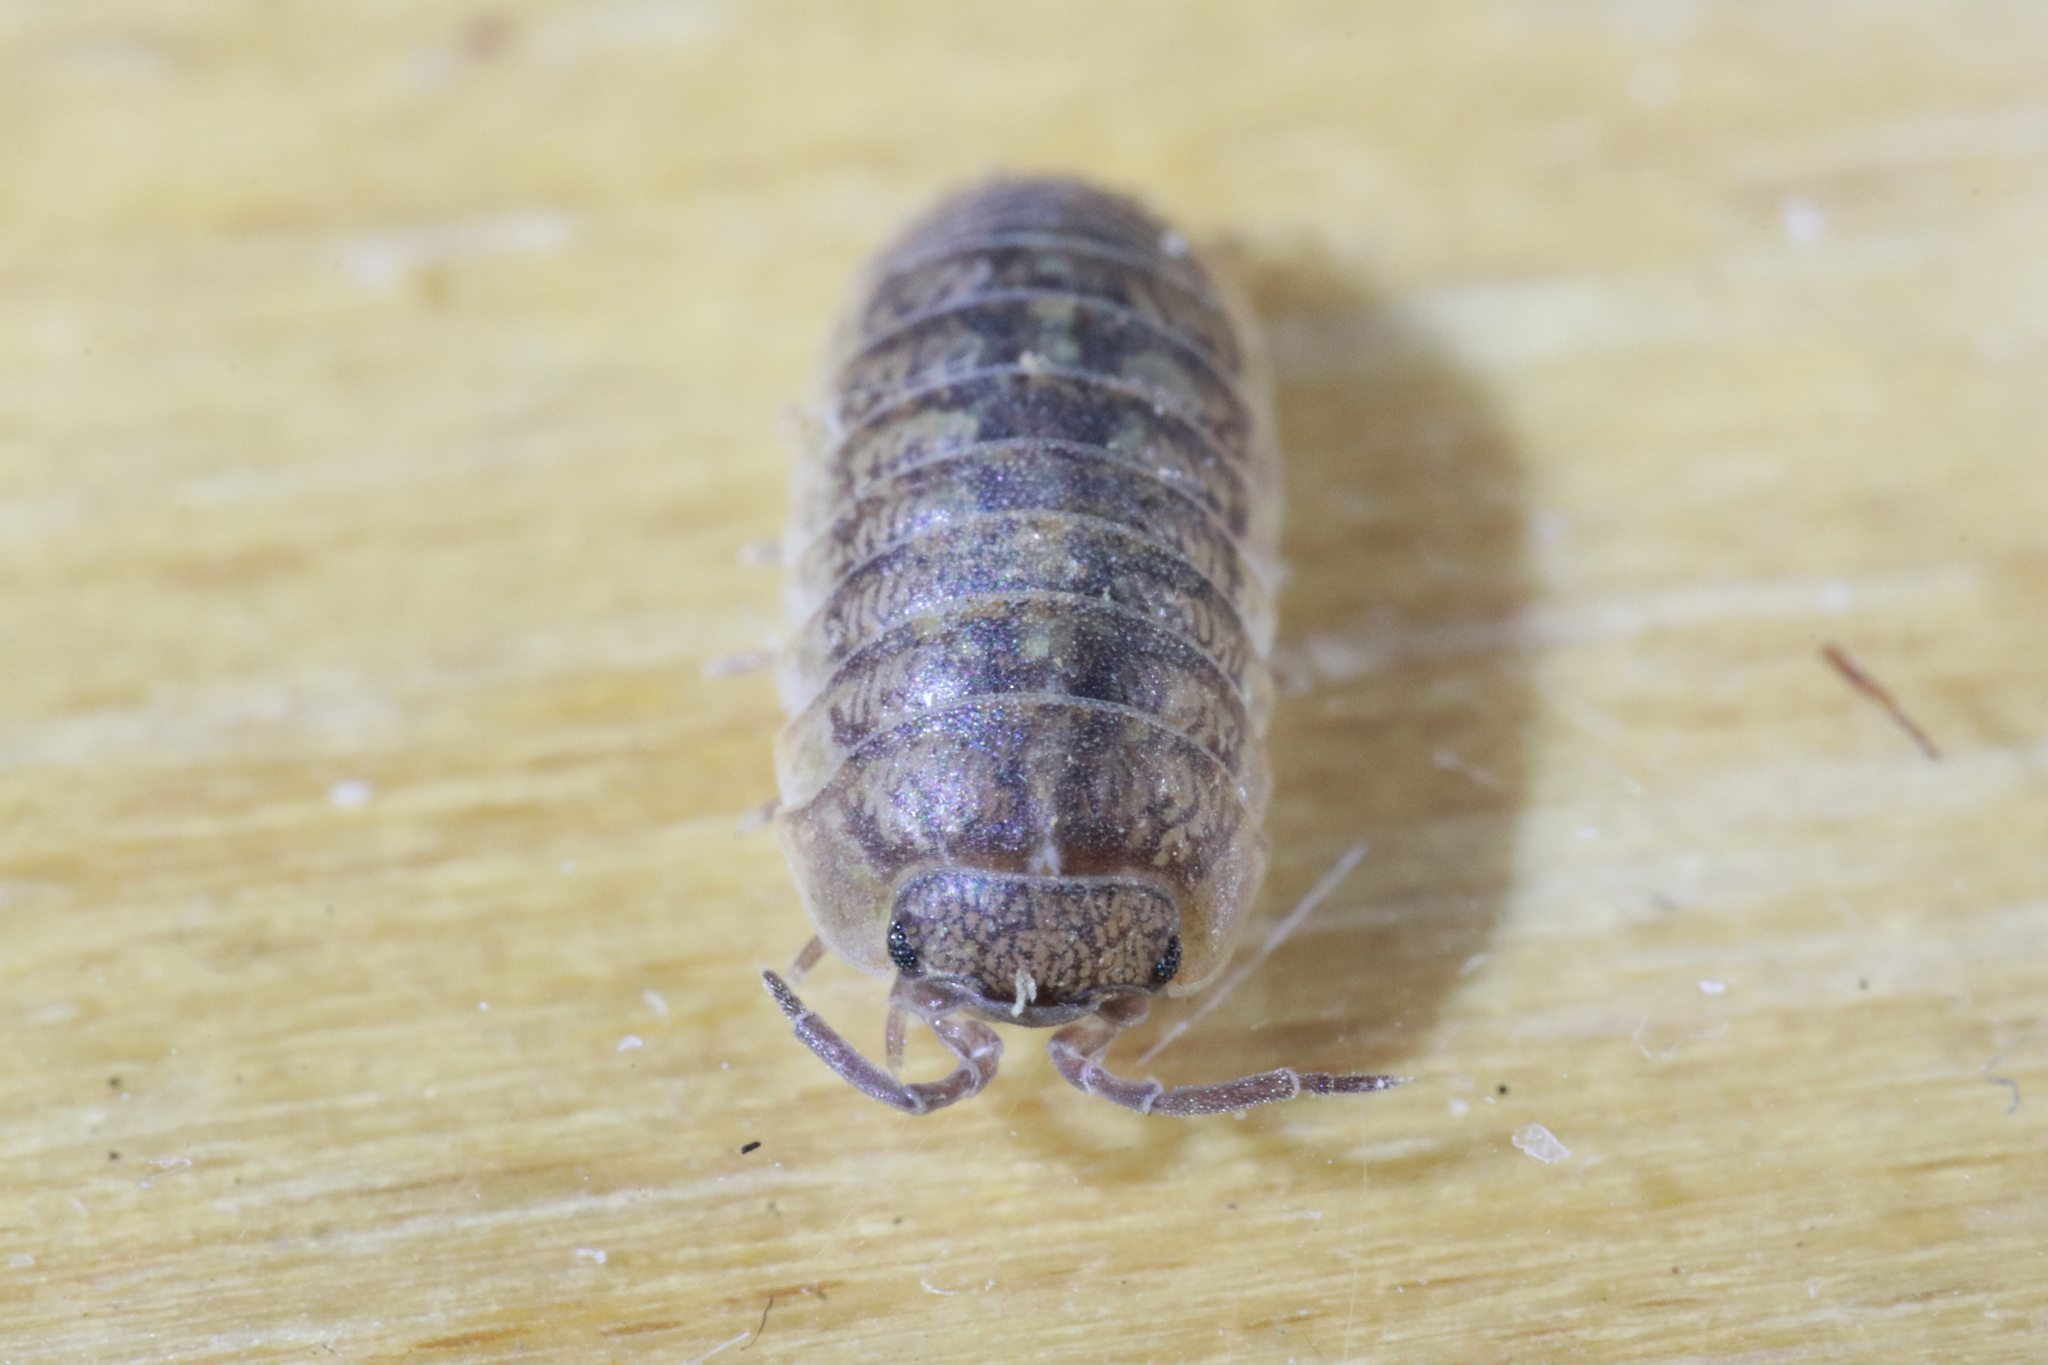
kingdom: Animalia
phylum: Arthropoda
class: Malacostraca
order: Isopoda
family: Armadillidiidae
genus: Armadillidium
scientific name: Armadillidium arcangelii
